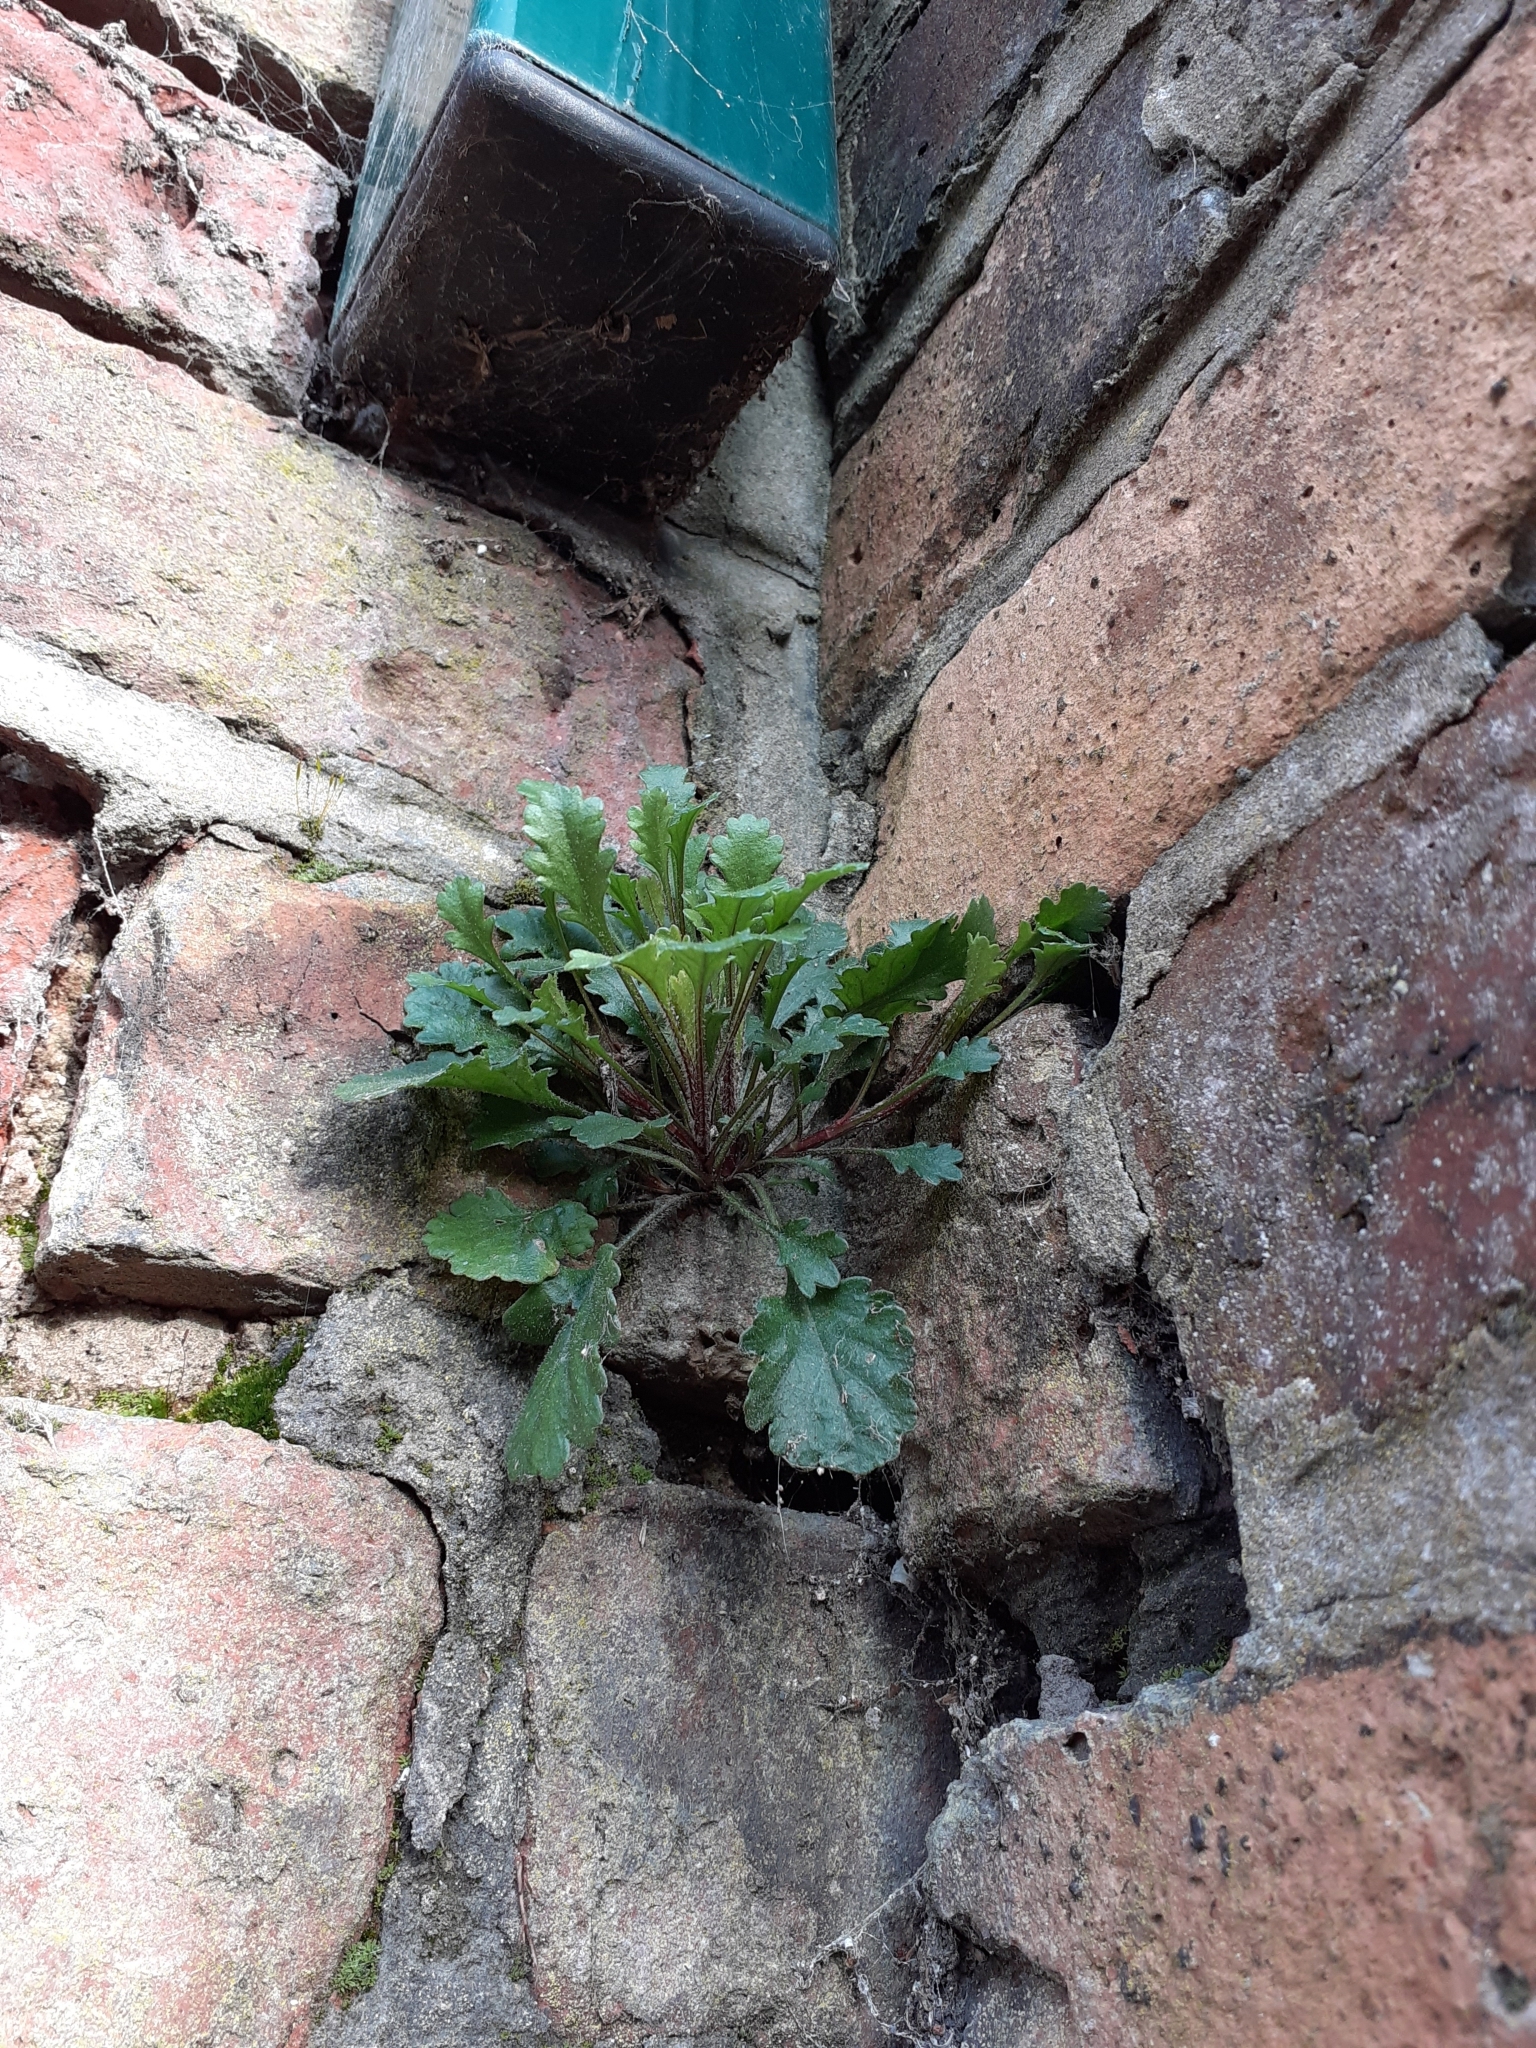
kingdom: Plantae
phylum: Tracheophyta
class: Magnoliopsida
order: Asterales
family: Asteraceae
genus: Leucanthemum
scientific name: Leucanthemum vulgare
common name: Oxeye daisy
